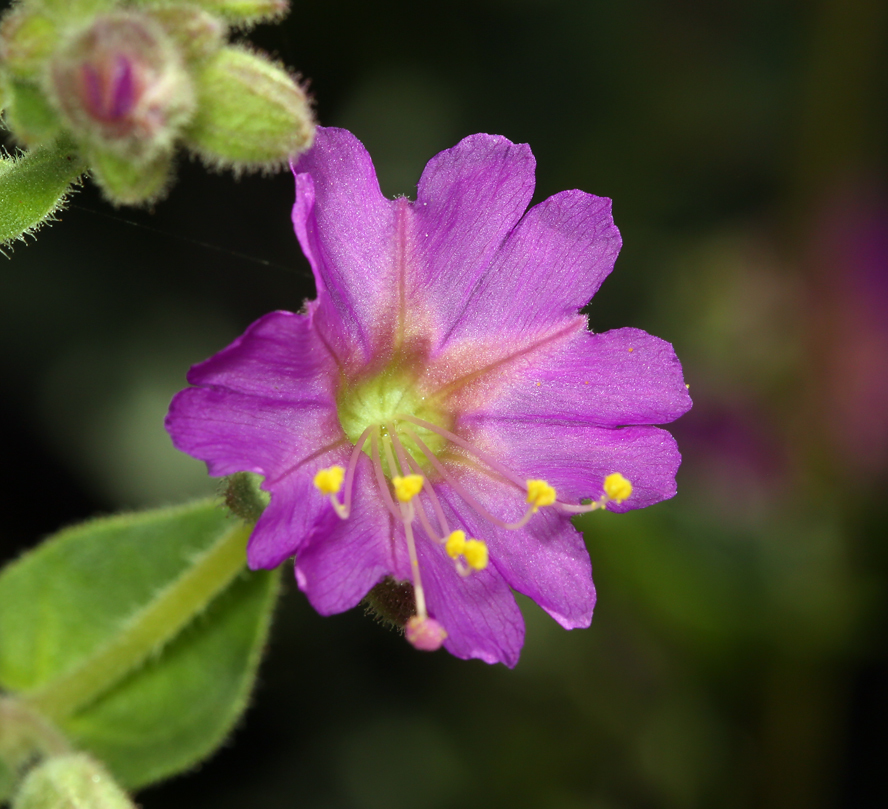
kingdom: Plantae
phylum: Tracheophyta
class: Magnoliopsida
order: Caryophyllales
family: Nyctaginaceae
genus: Mirabilis
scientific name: Mirabilis laevis
